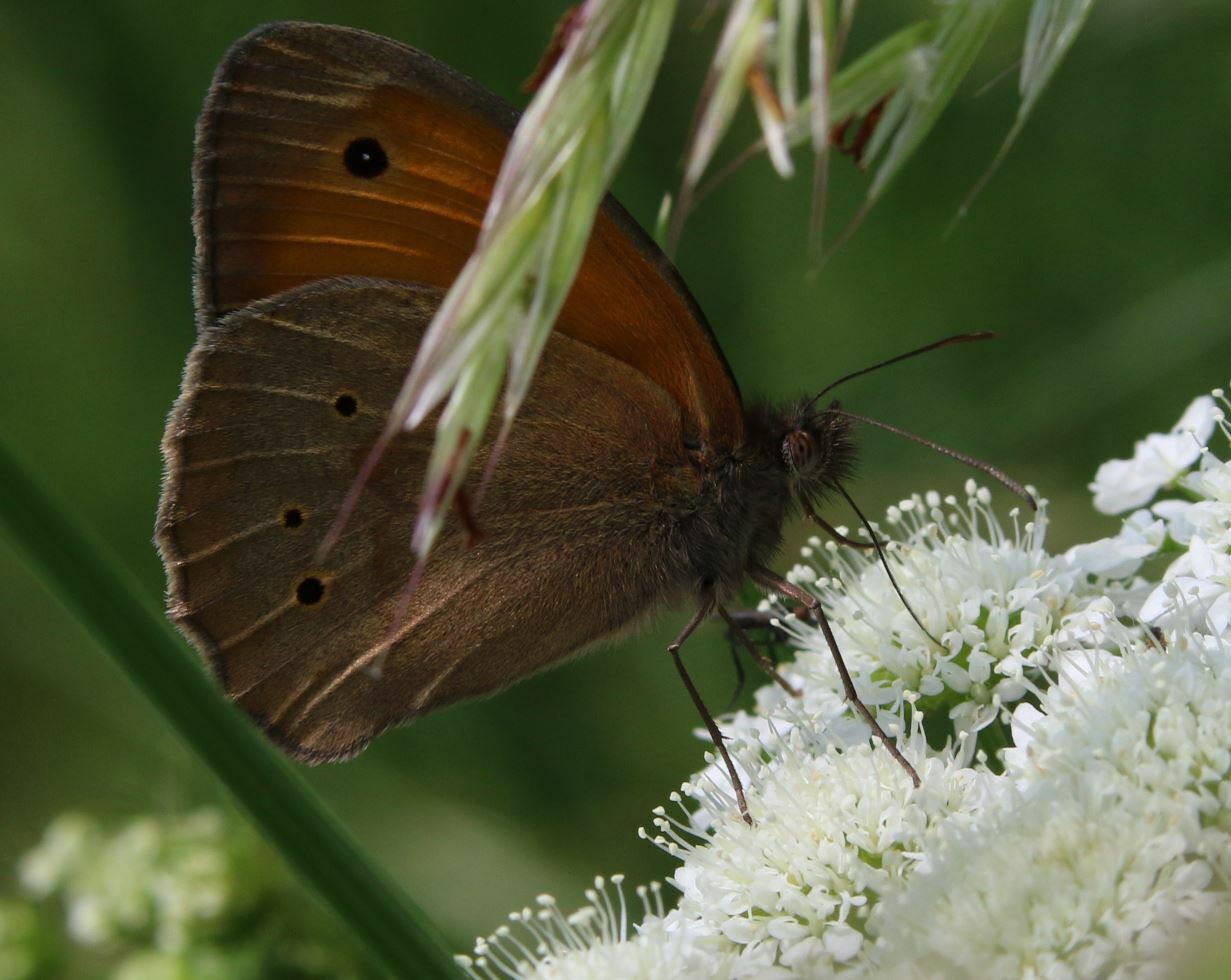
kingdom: Animalia
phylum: Arthropoda
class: Insecta
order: Lepidoptera
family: Nymphalidae
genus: Maniola
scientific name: Maniola jurtina
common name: Meadow brown
